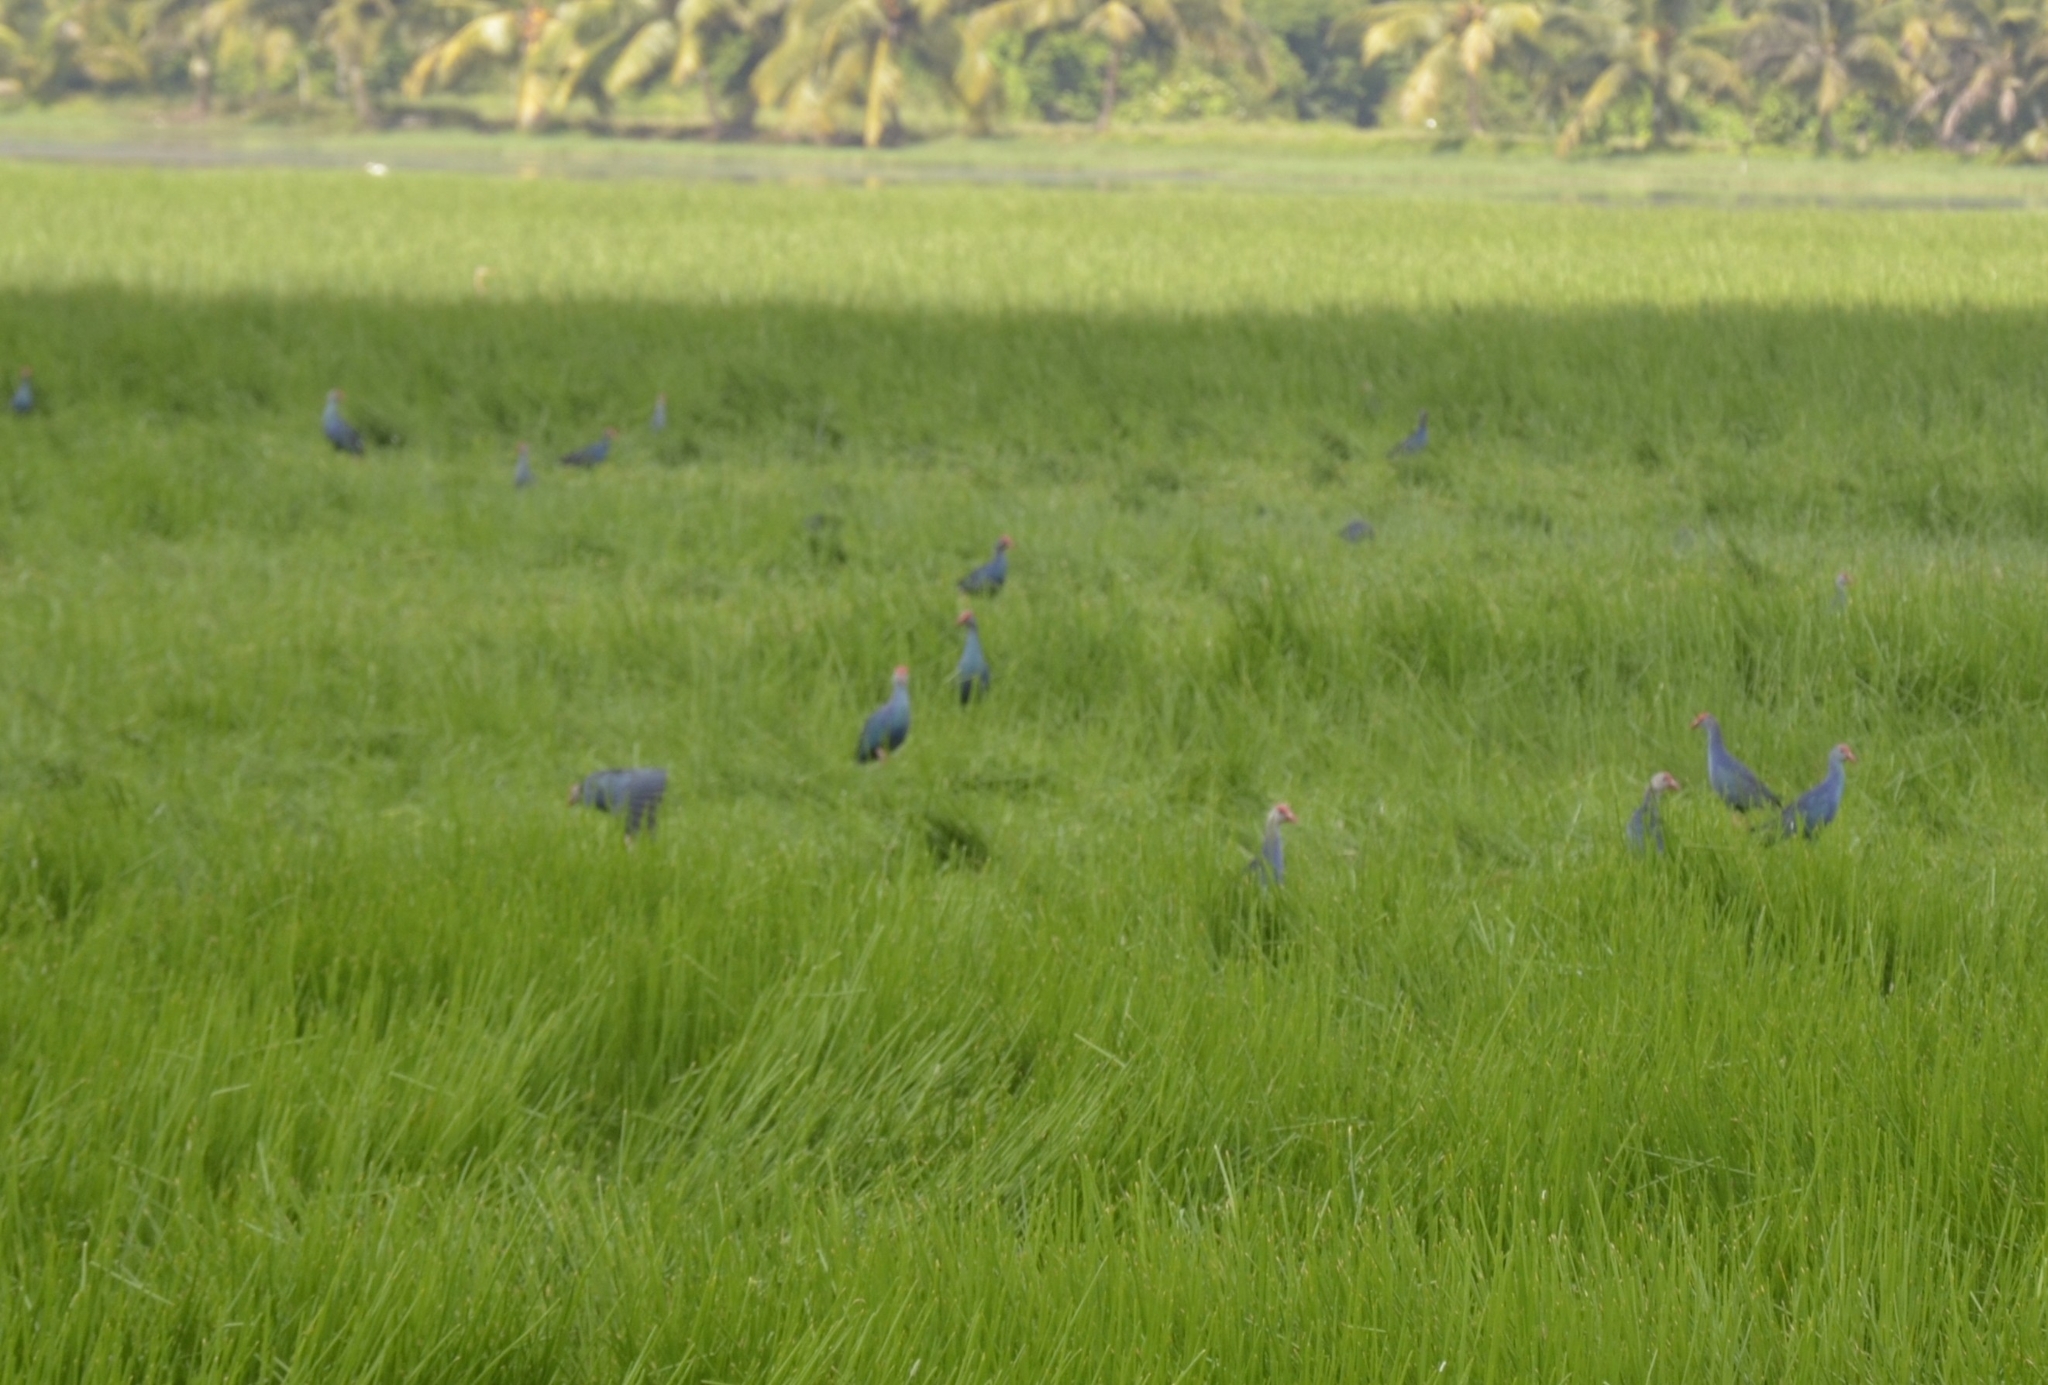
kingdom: Animalia
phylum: Chordata
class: Aves
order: Gruiformes
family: Rallidae
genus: Porphyrio
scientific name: Porphyrio porphyrio
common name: Purple swamphen
